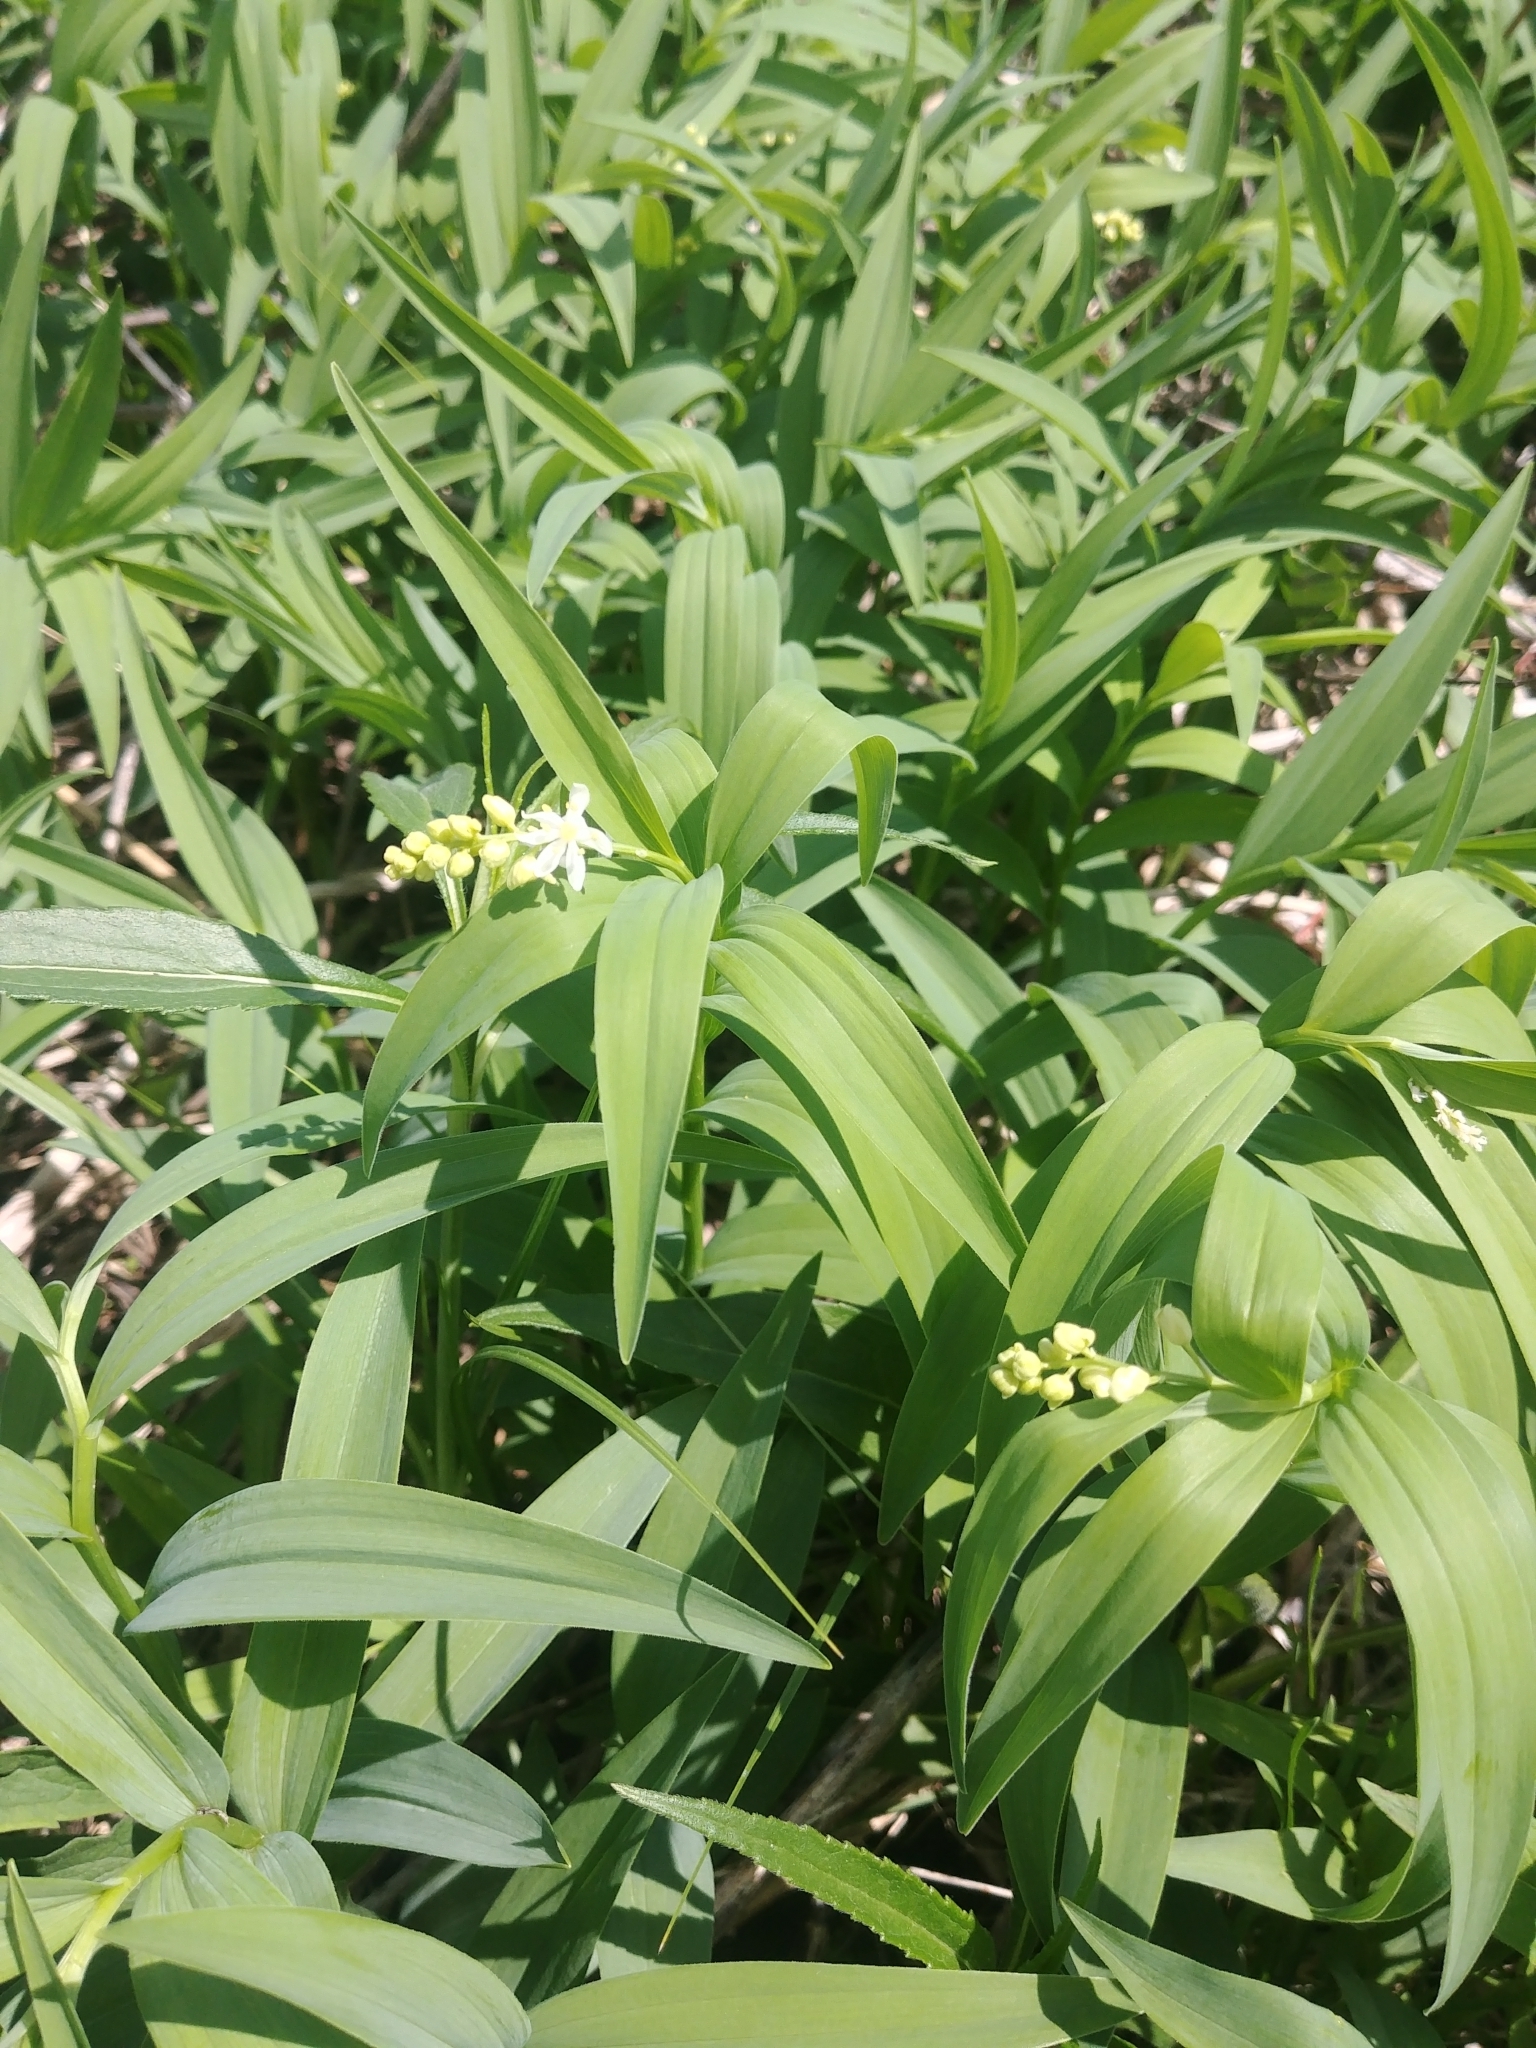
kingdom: Plantae
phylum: Tracheophyta
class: Liliopsida
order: Asparagales
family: Asparagaceae
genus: Maianthemum
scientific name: Maianthemum stellatum
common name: Little false solomon's seal
